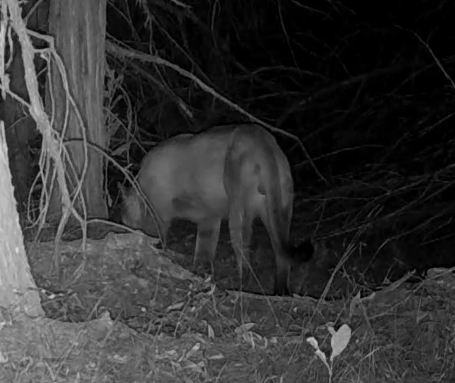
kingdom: Animalia
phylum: Chordata
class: Mammalia
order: Carnivora
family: Felidae
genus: Puma
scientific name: Puma concolor
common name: Puma
